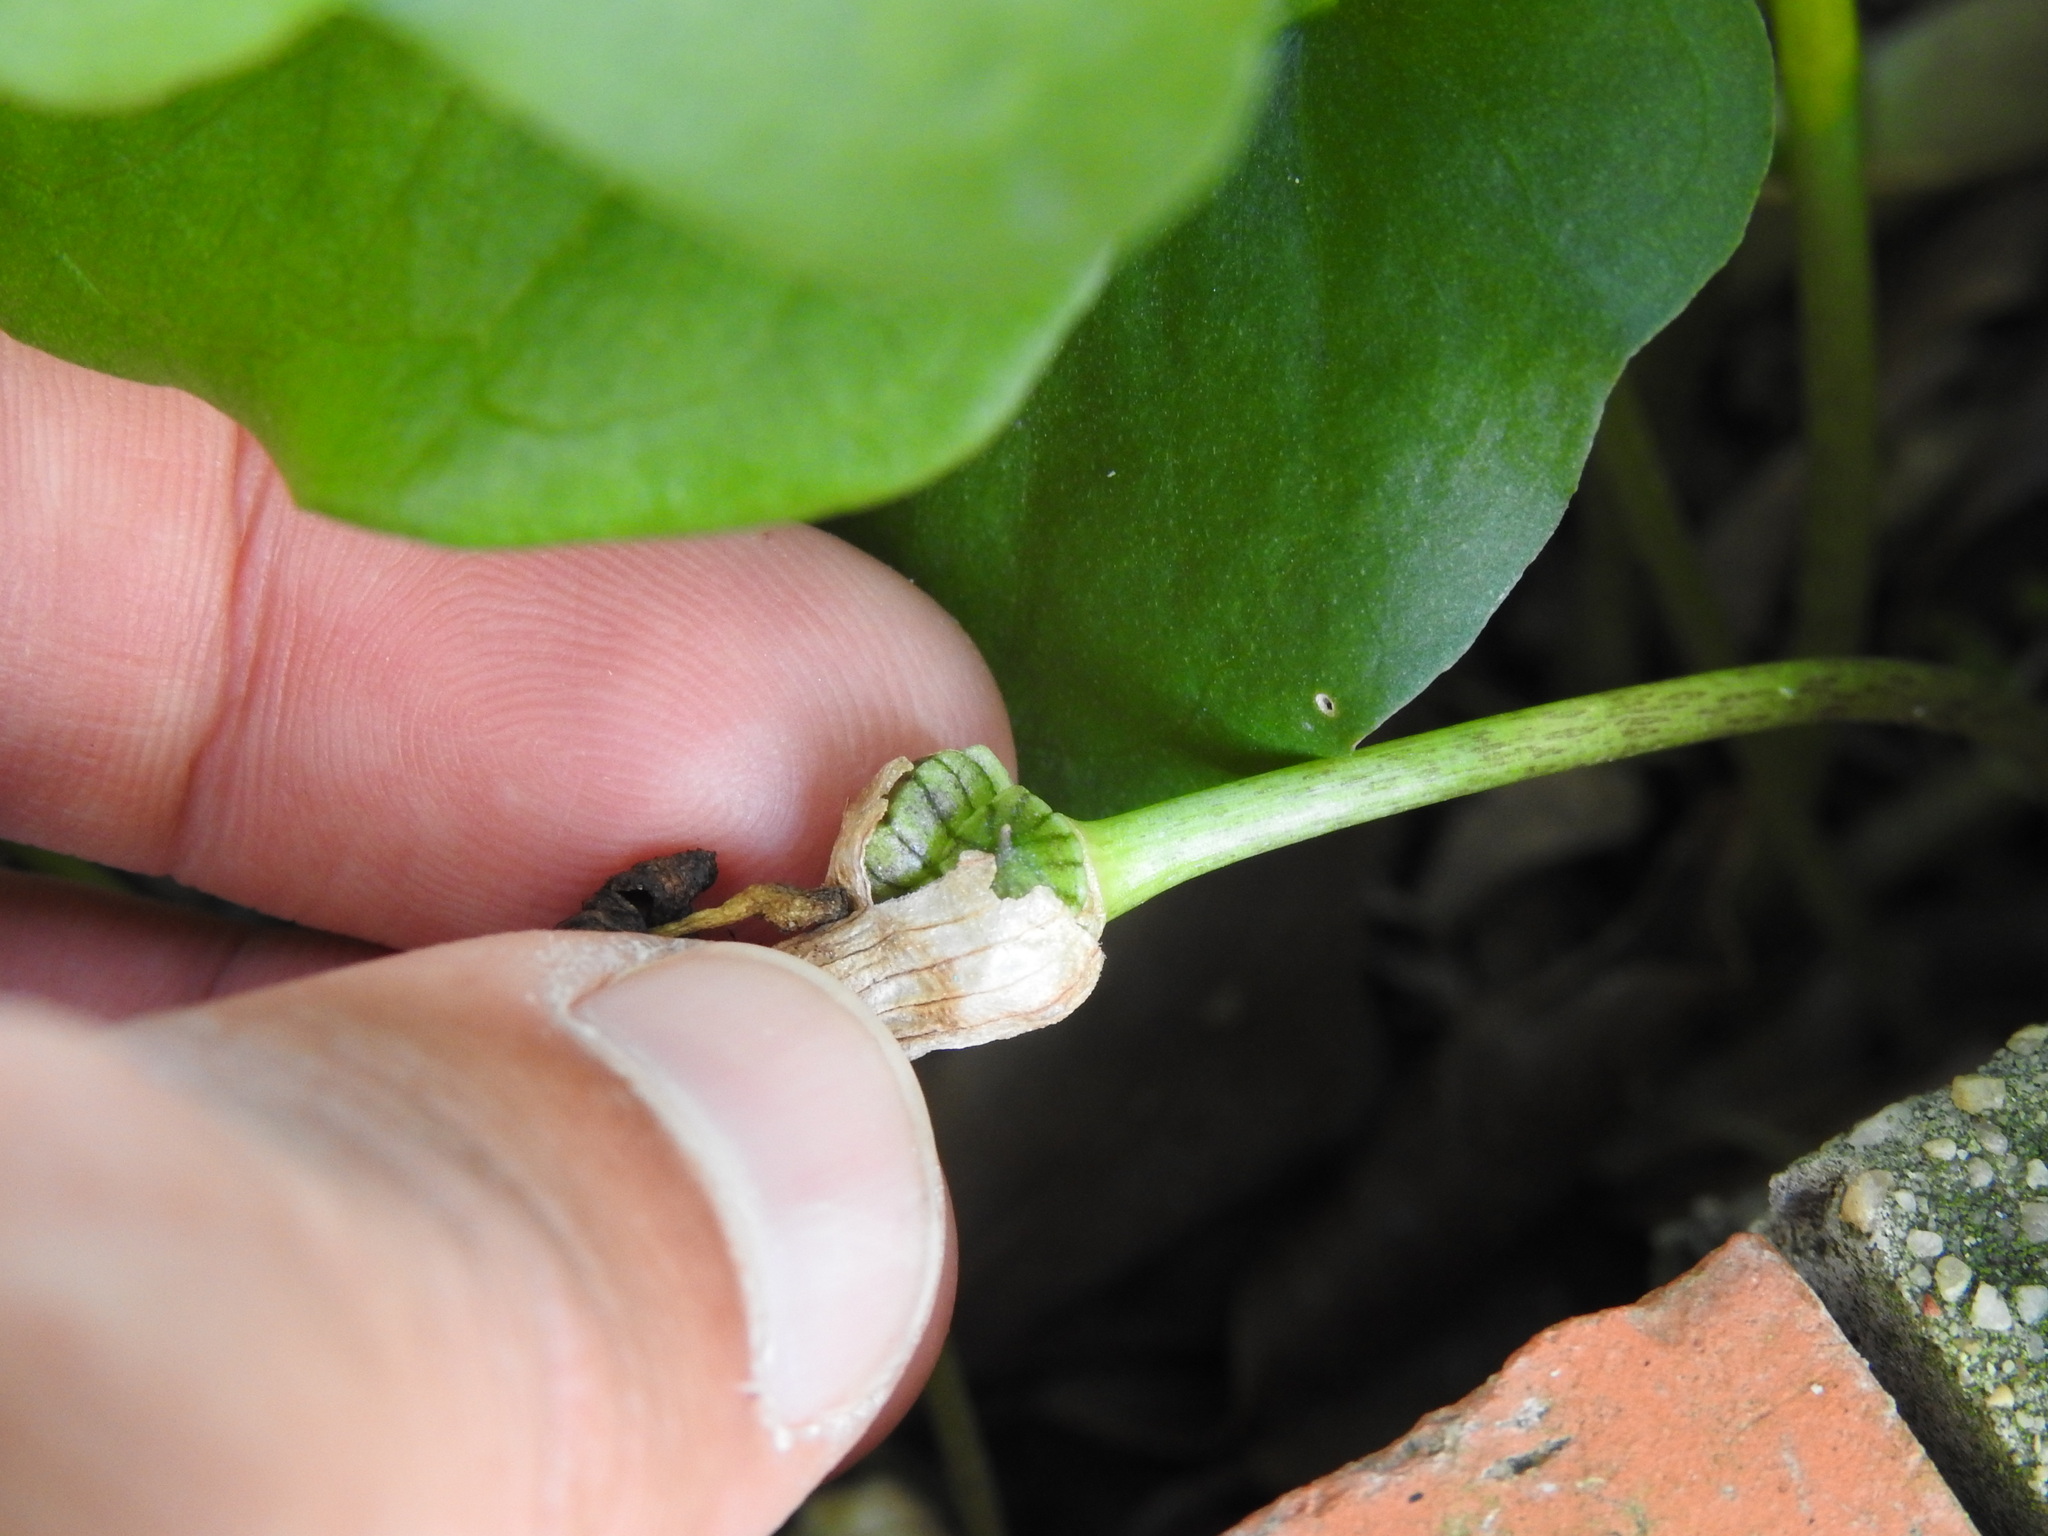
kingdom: Plantae
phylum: Tracheophyta
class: Liliopsida
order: Alismatales
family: Araceae
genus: Arisarum
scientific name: Arisarum simorrhinum
